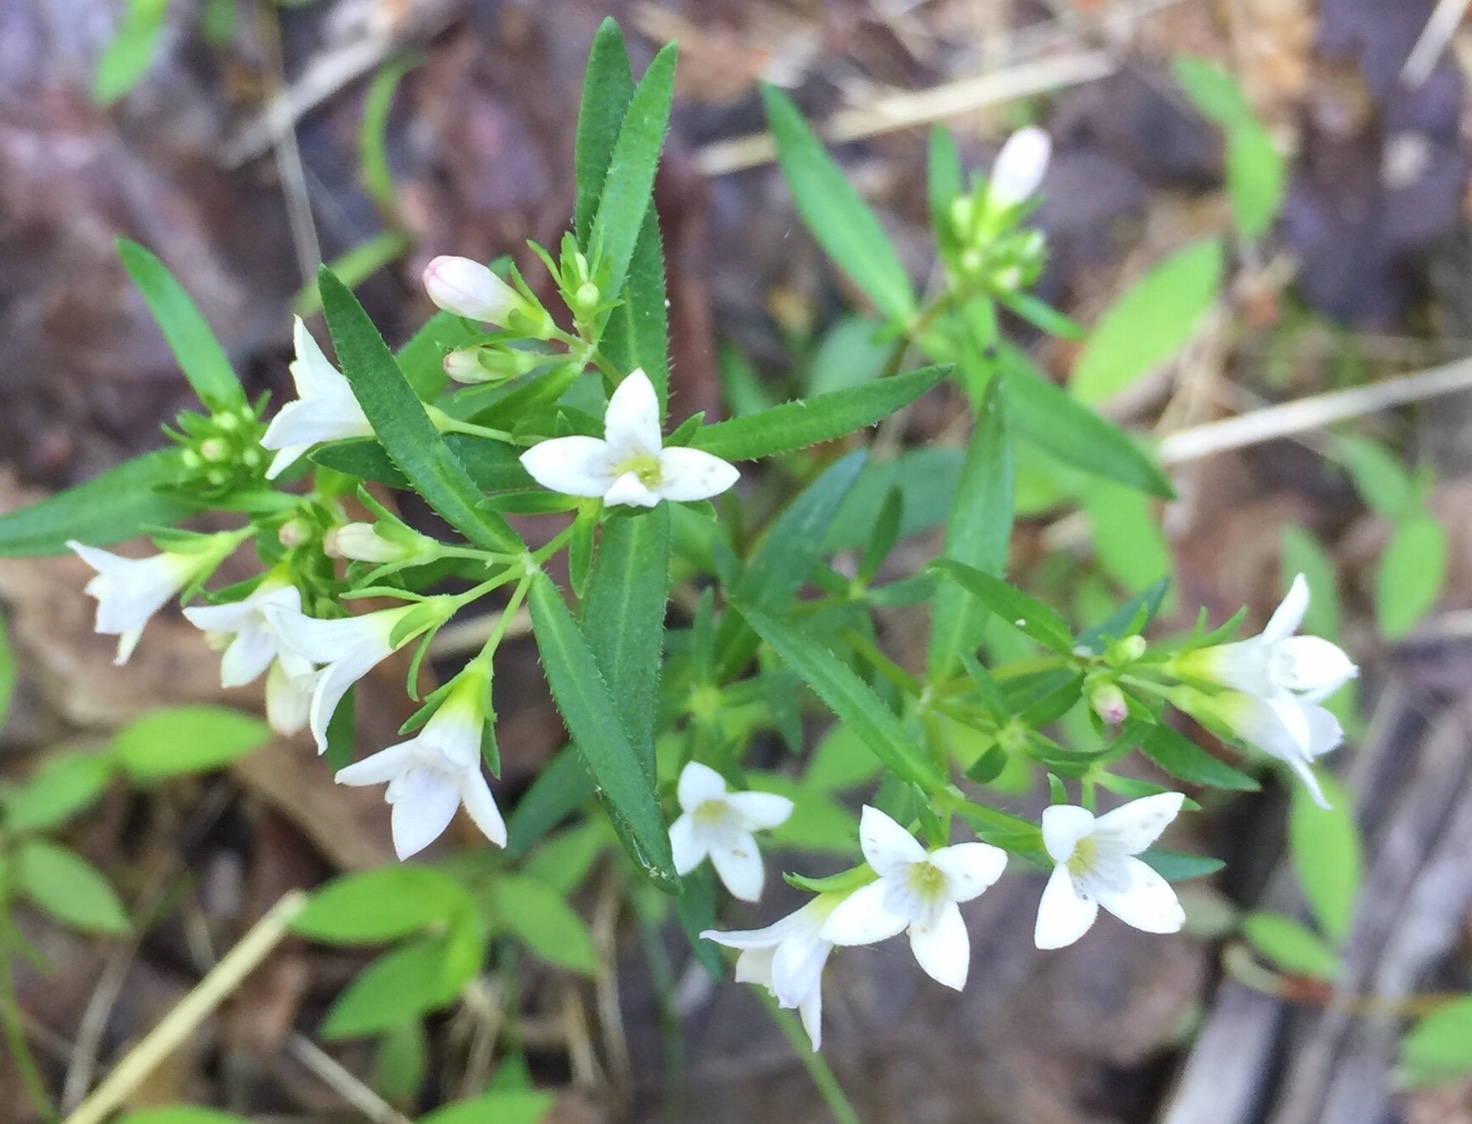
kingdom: Plantae
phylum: Tracheophyta
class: Magnoliopsida
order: Gentianales
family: Rubiaceae
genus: Houstonia
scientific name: Houstonia longifolia
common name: Long-leaved bluets
